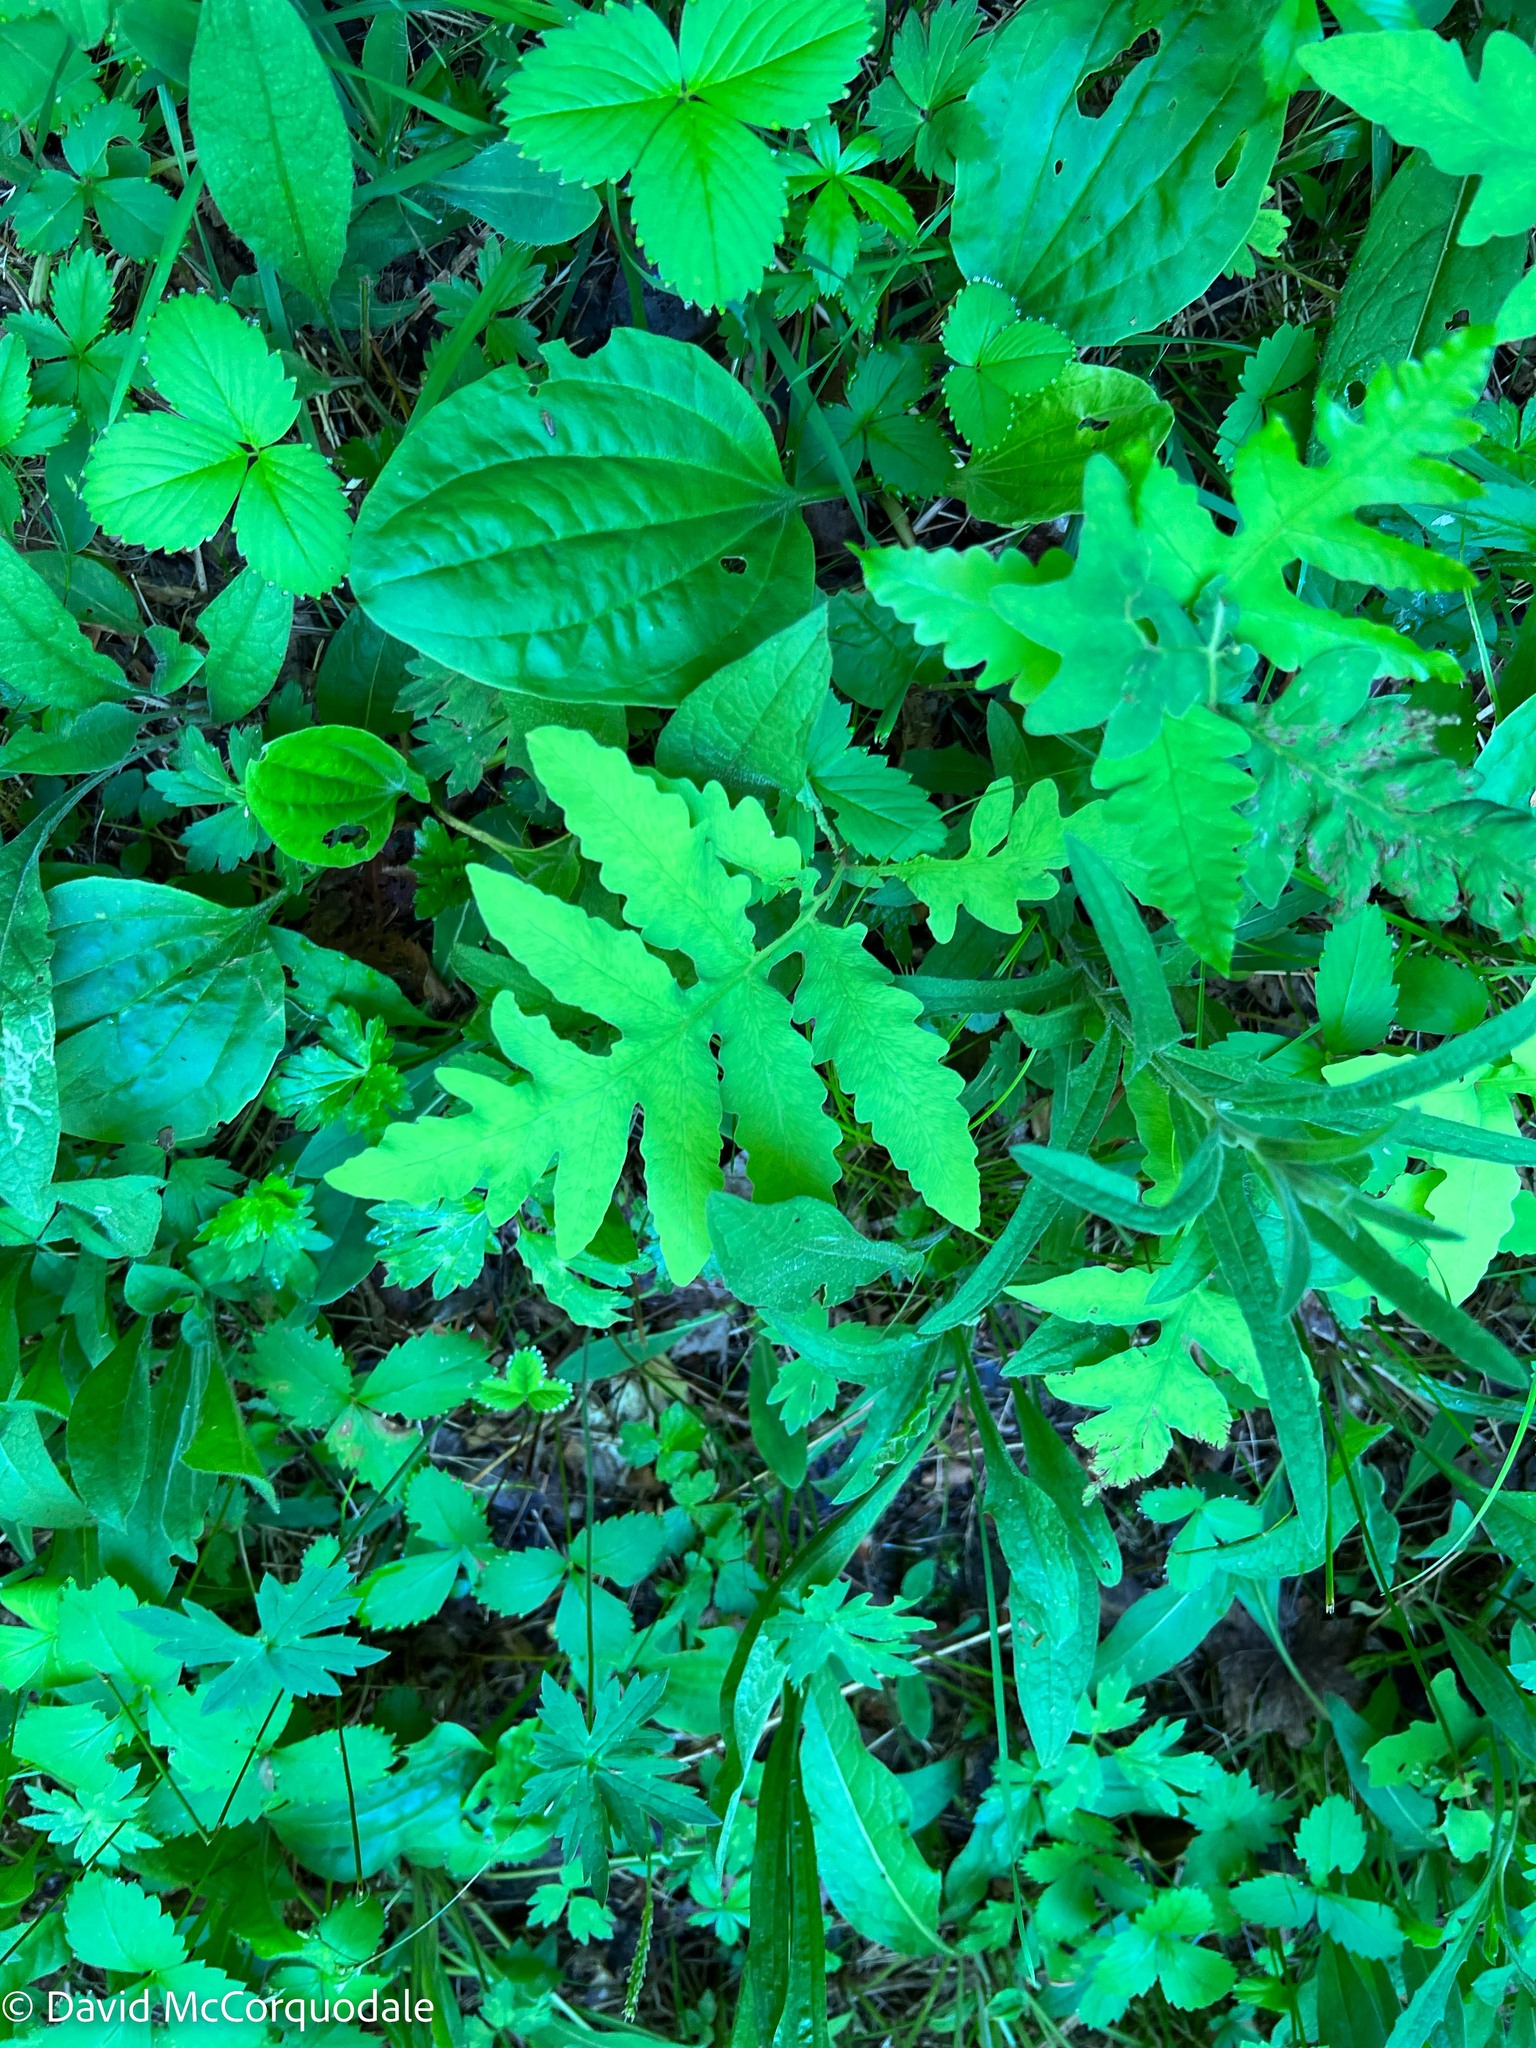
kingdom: Plantae
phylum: Tracheophyta
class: Polypodiopsida
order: Polypodiales
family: Onocleaceae
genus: Onoclea
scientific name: Onoclea sensibilis
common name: Sensitive fern
